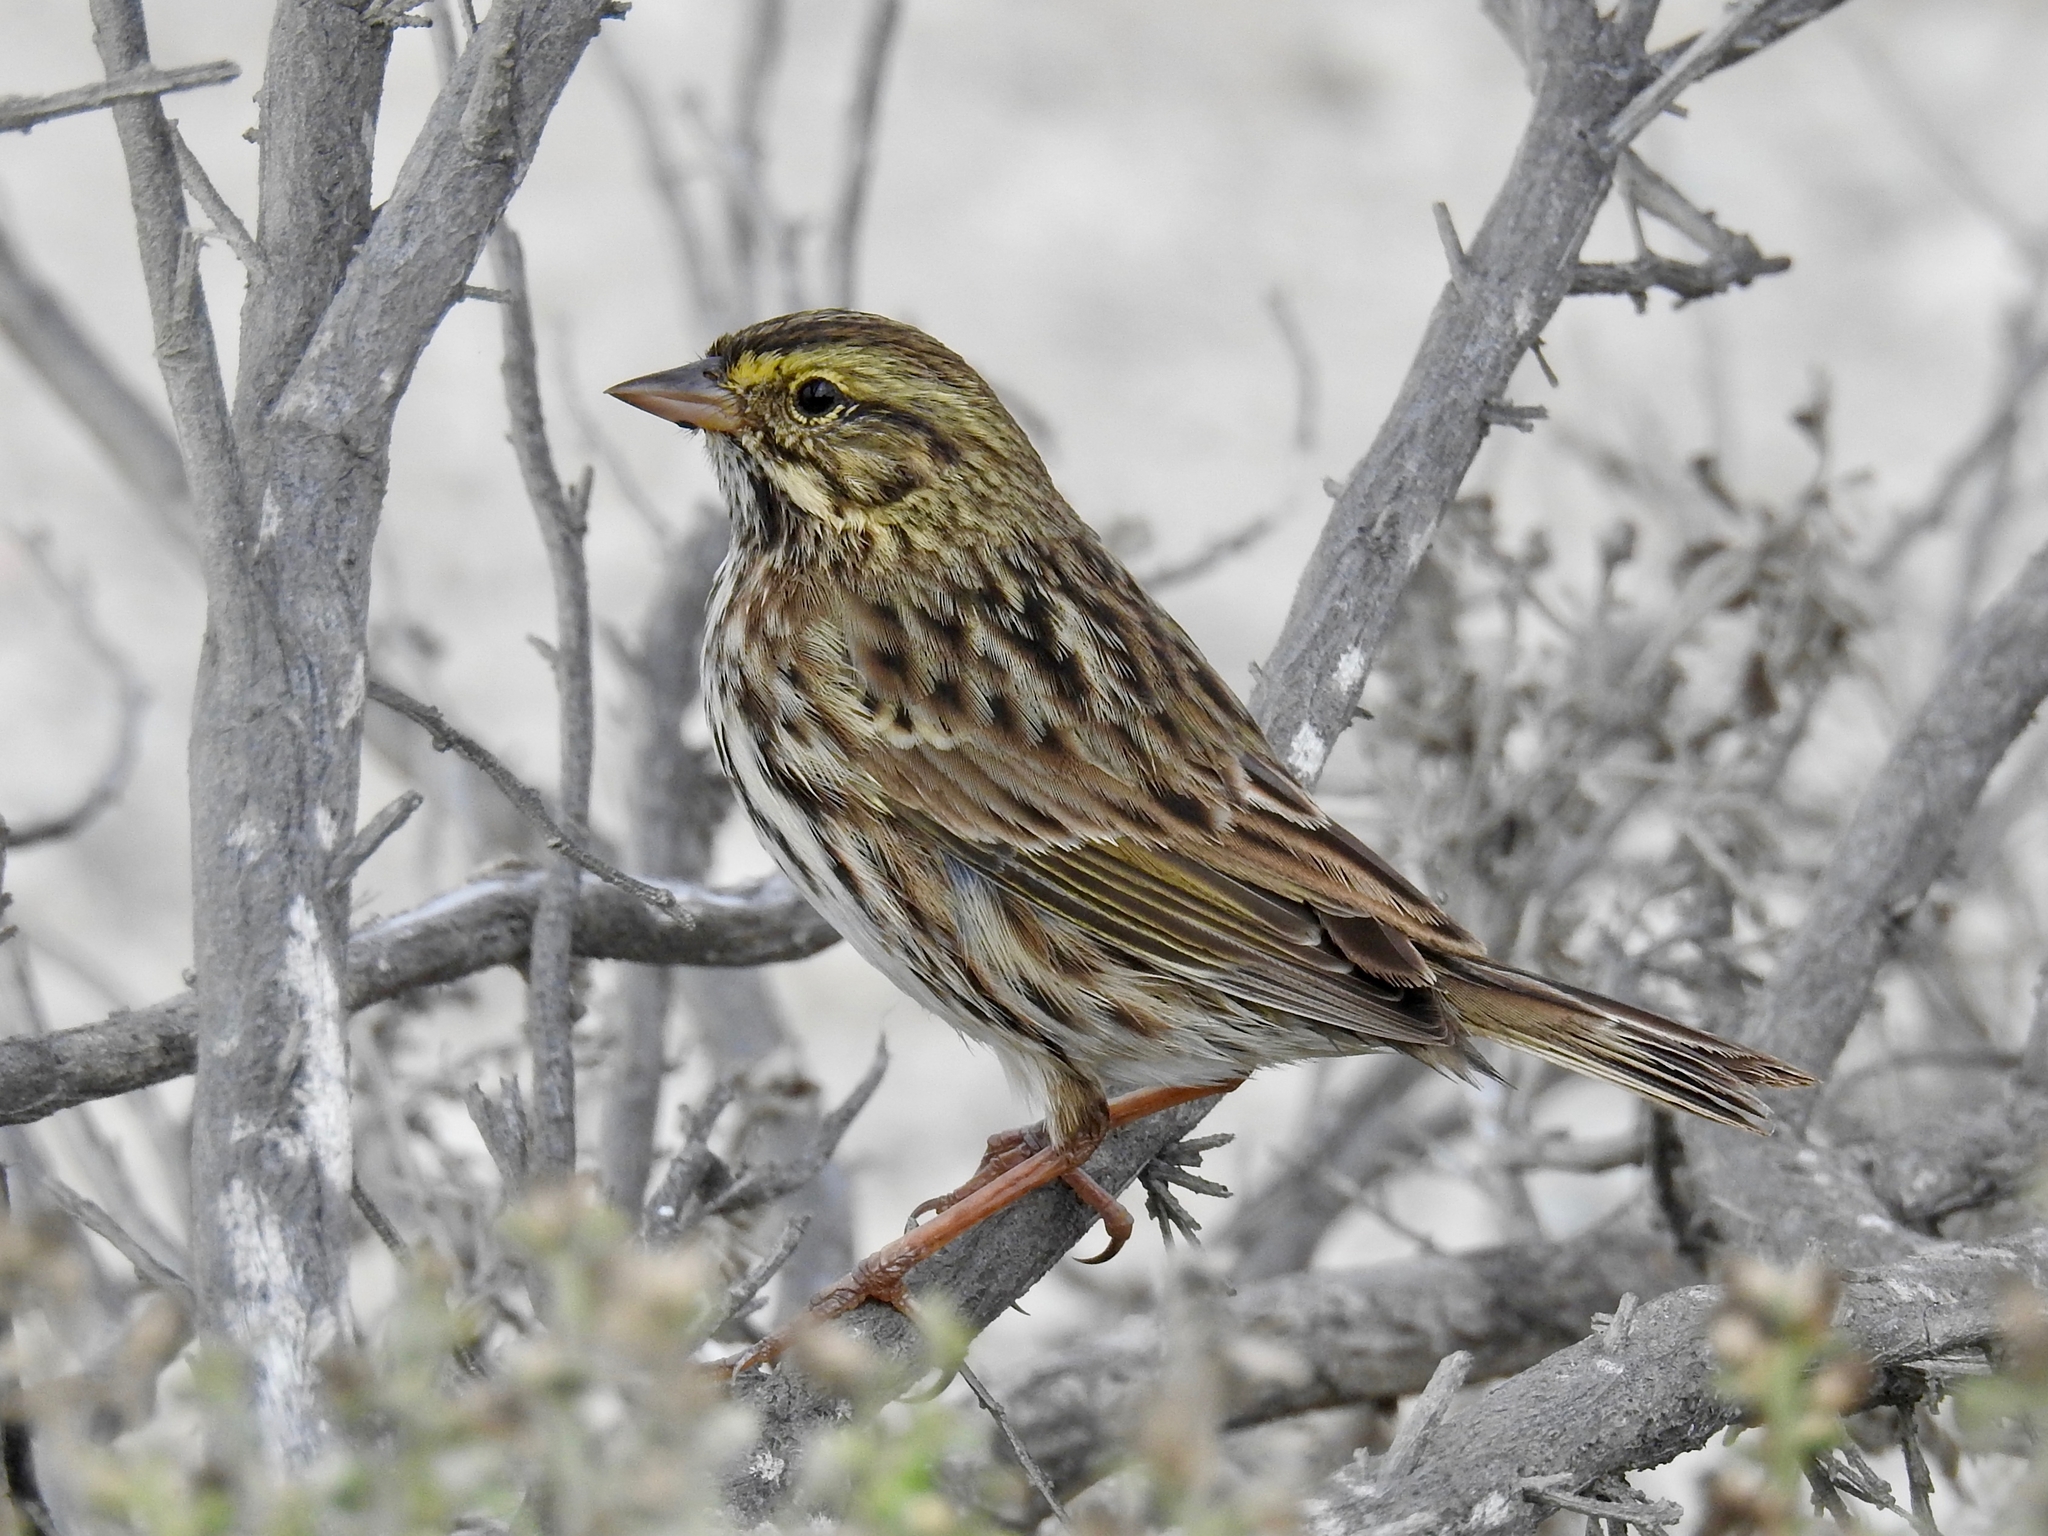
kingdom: Animalia
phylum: Chordata
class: Aves
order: Passeriformes
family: Passerellidae
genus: Passerculus
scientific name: Passerculus sandwichensis
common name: Savannah sparrow
